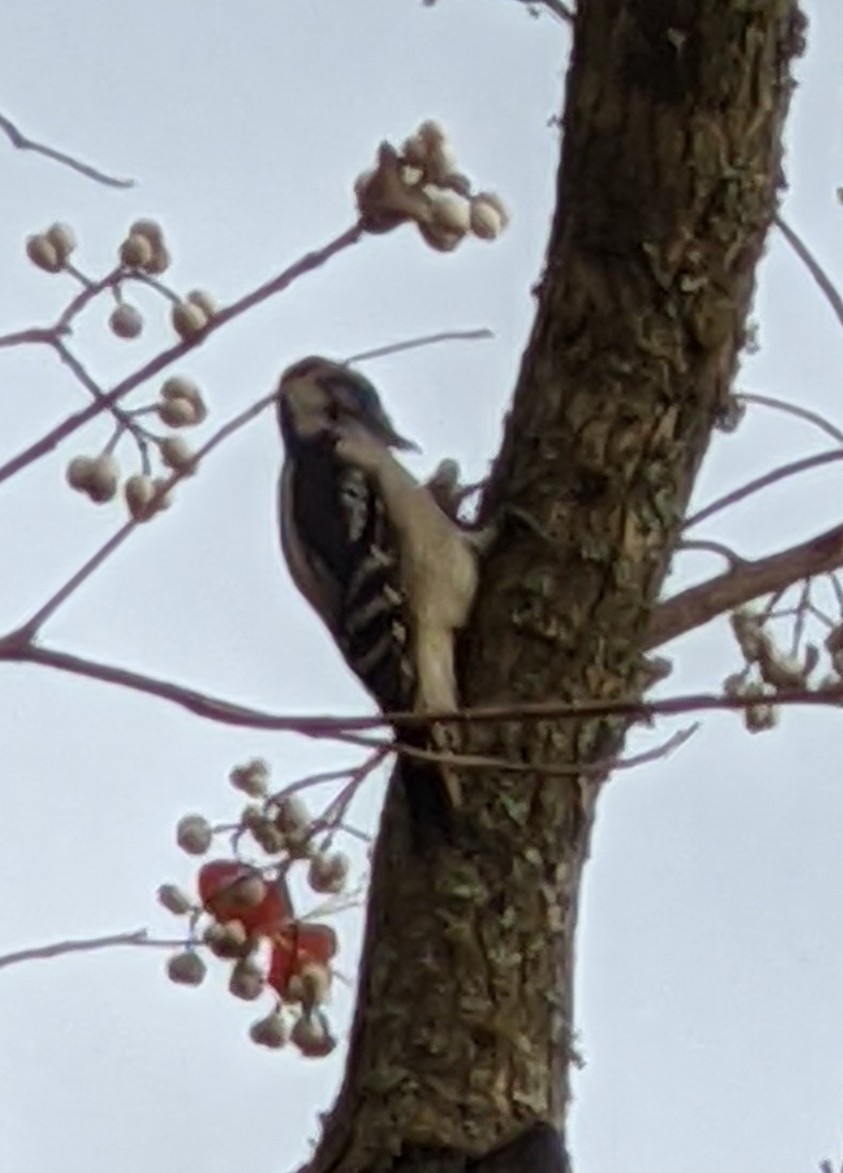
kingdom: Animalia
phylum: Chordata
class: Aves
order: Piciformes
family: Picidae
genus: Dryobates
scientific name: Dryobates pubescens
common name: Downy woodpecker
